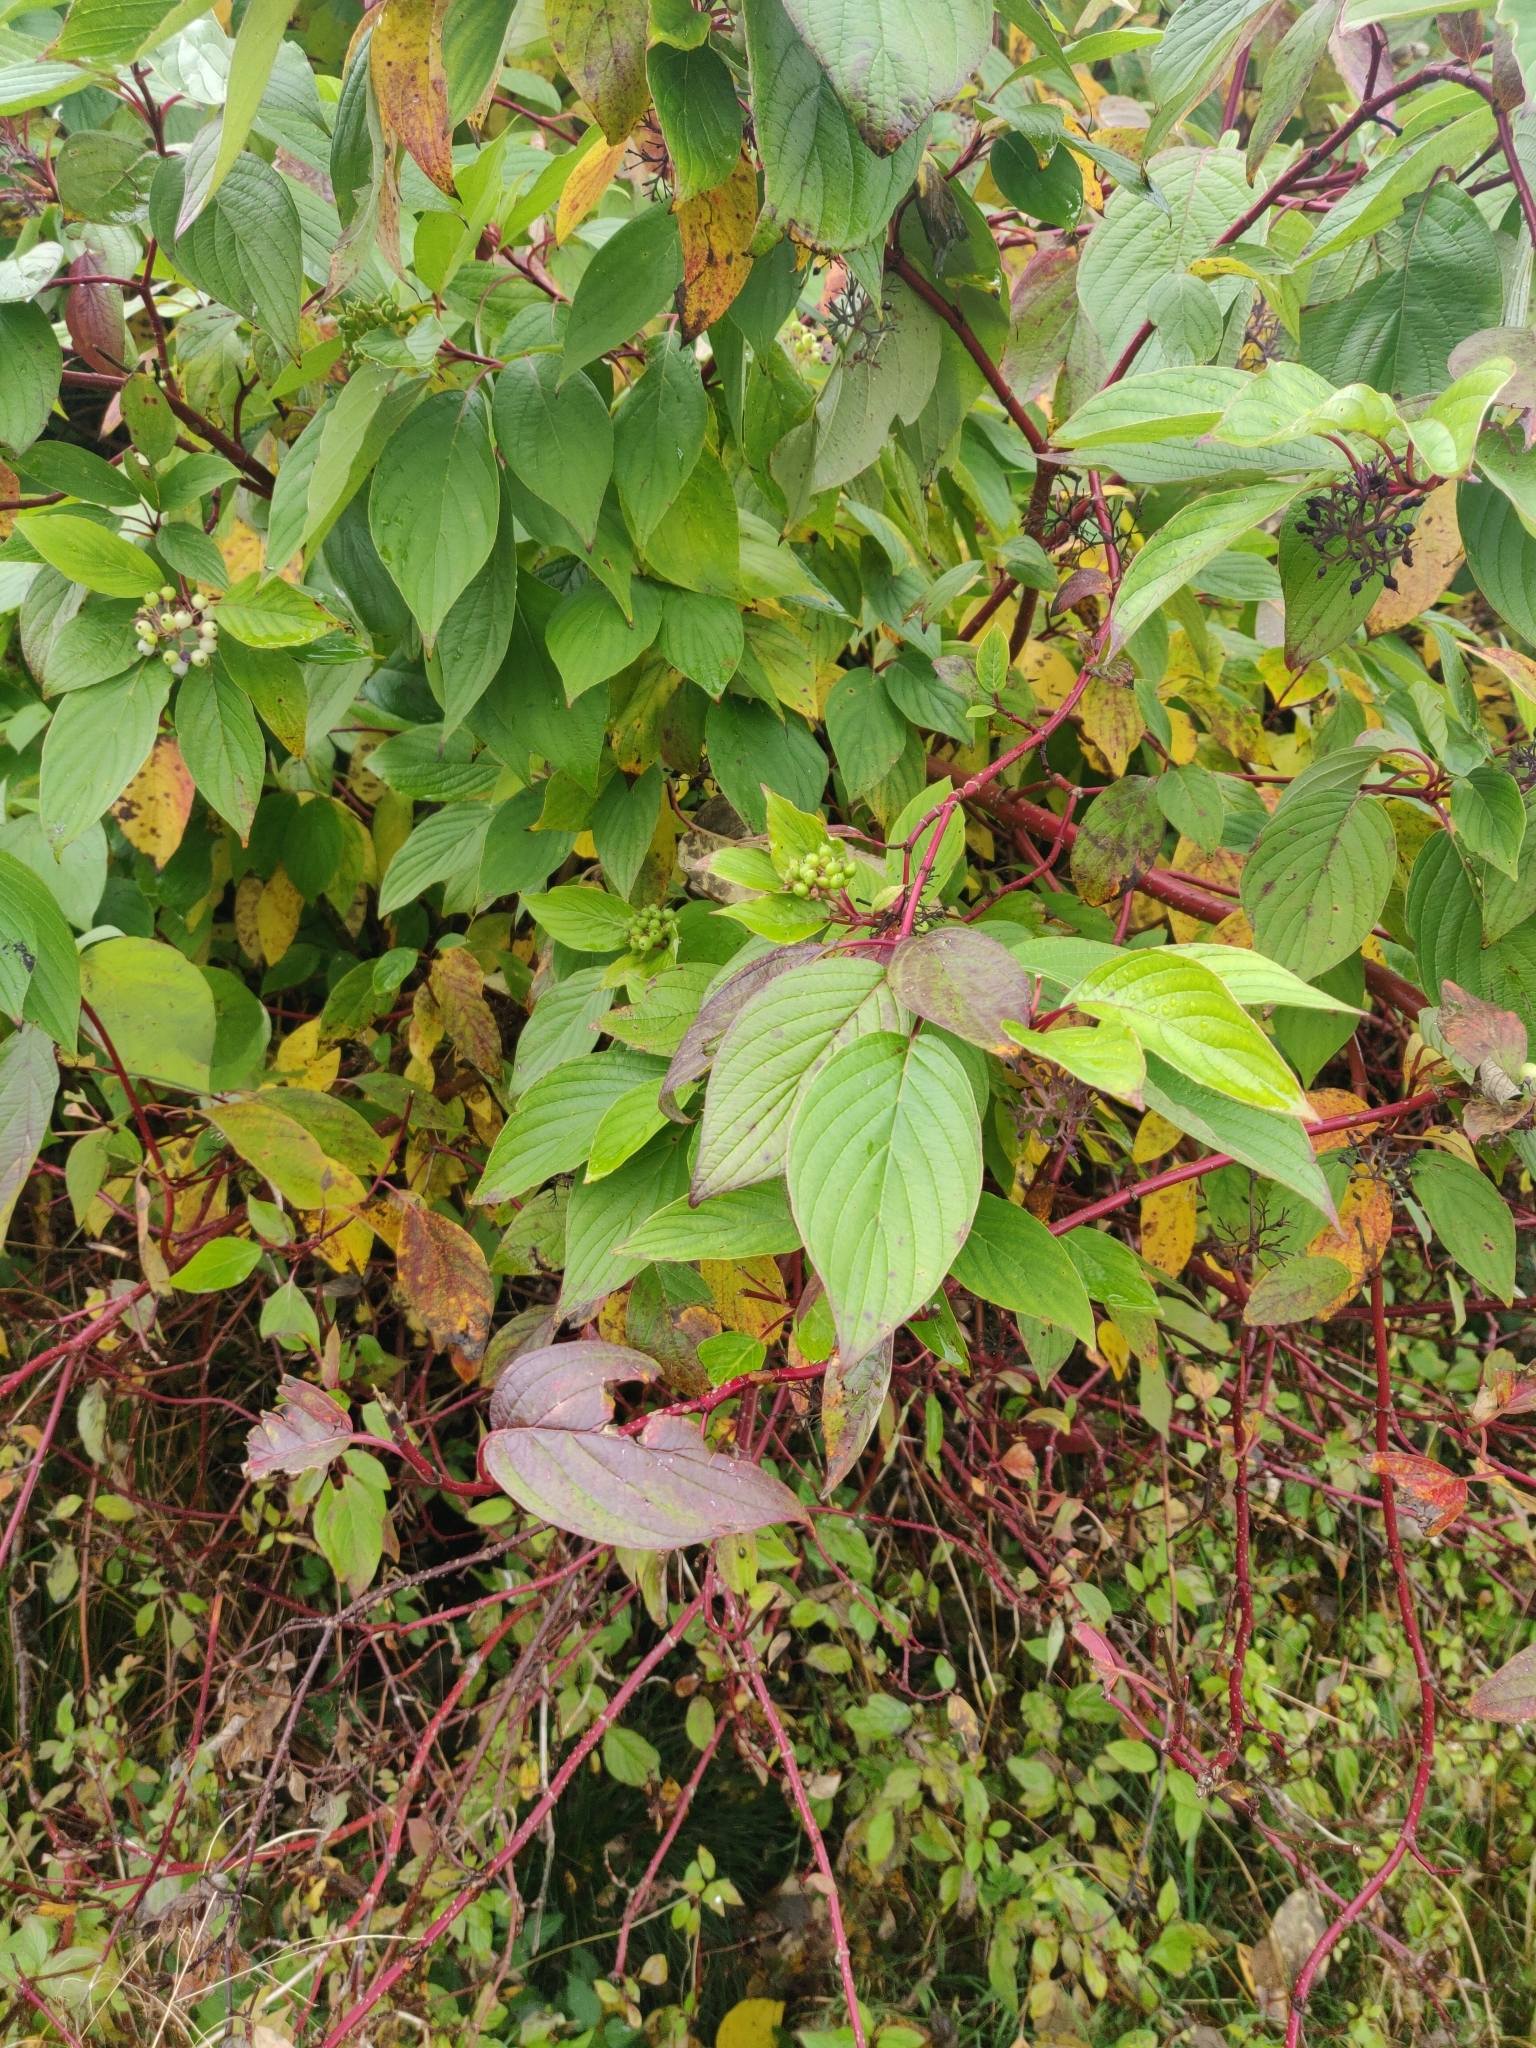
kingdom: Plantae
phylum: Tracheophyta
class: Magnoliopsida
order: Cornales
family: Cornaceae
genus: Cornus
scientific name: Cornus alba
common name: White dogwood
